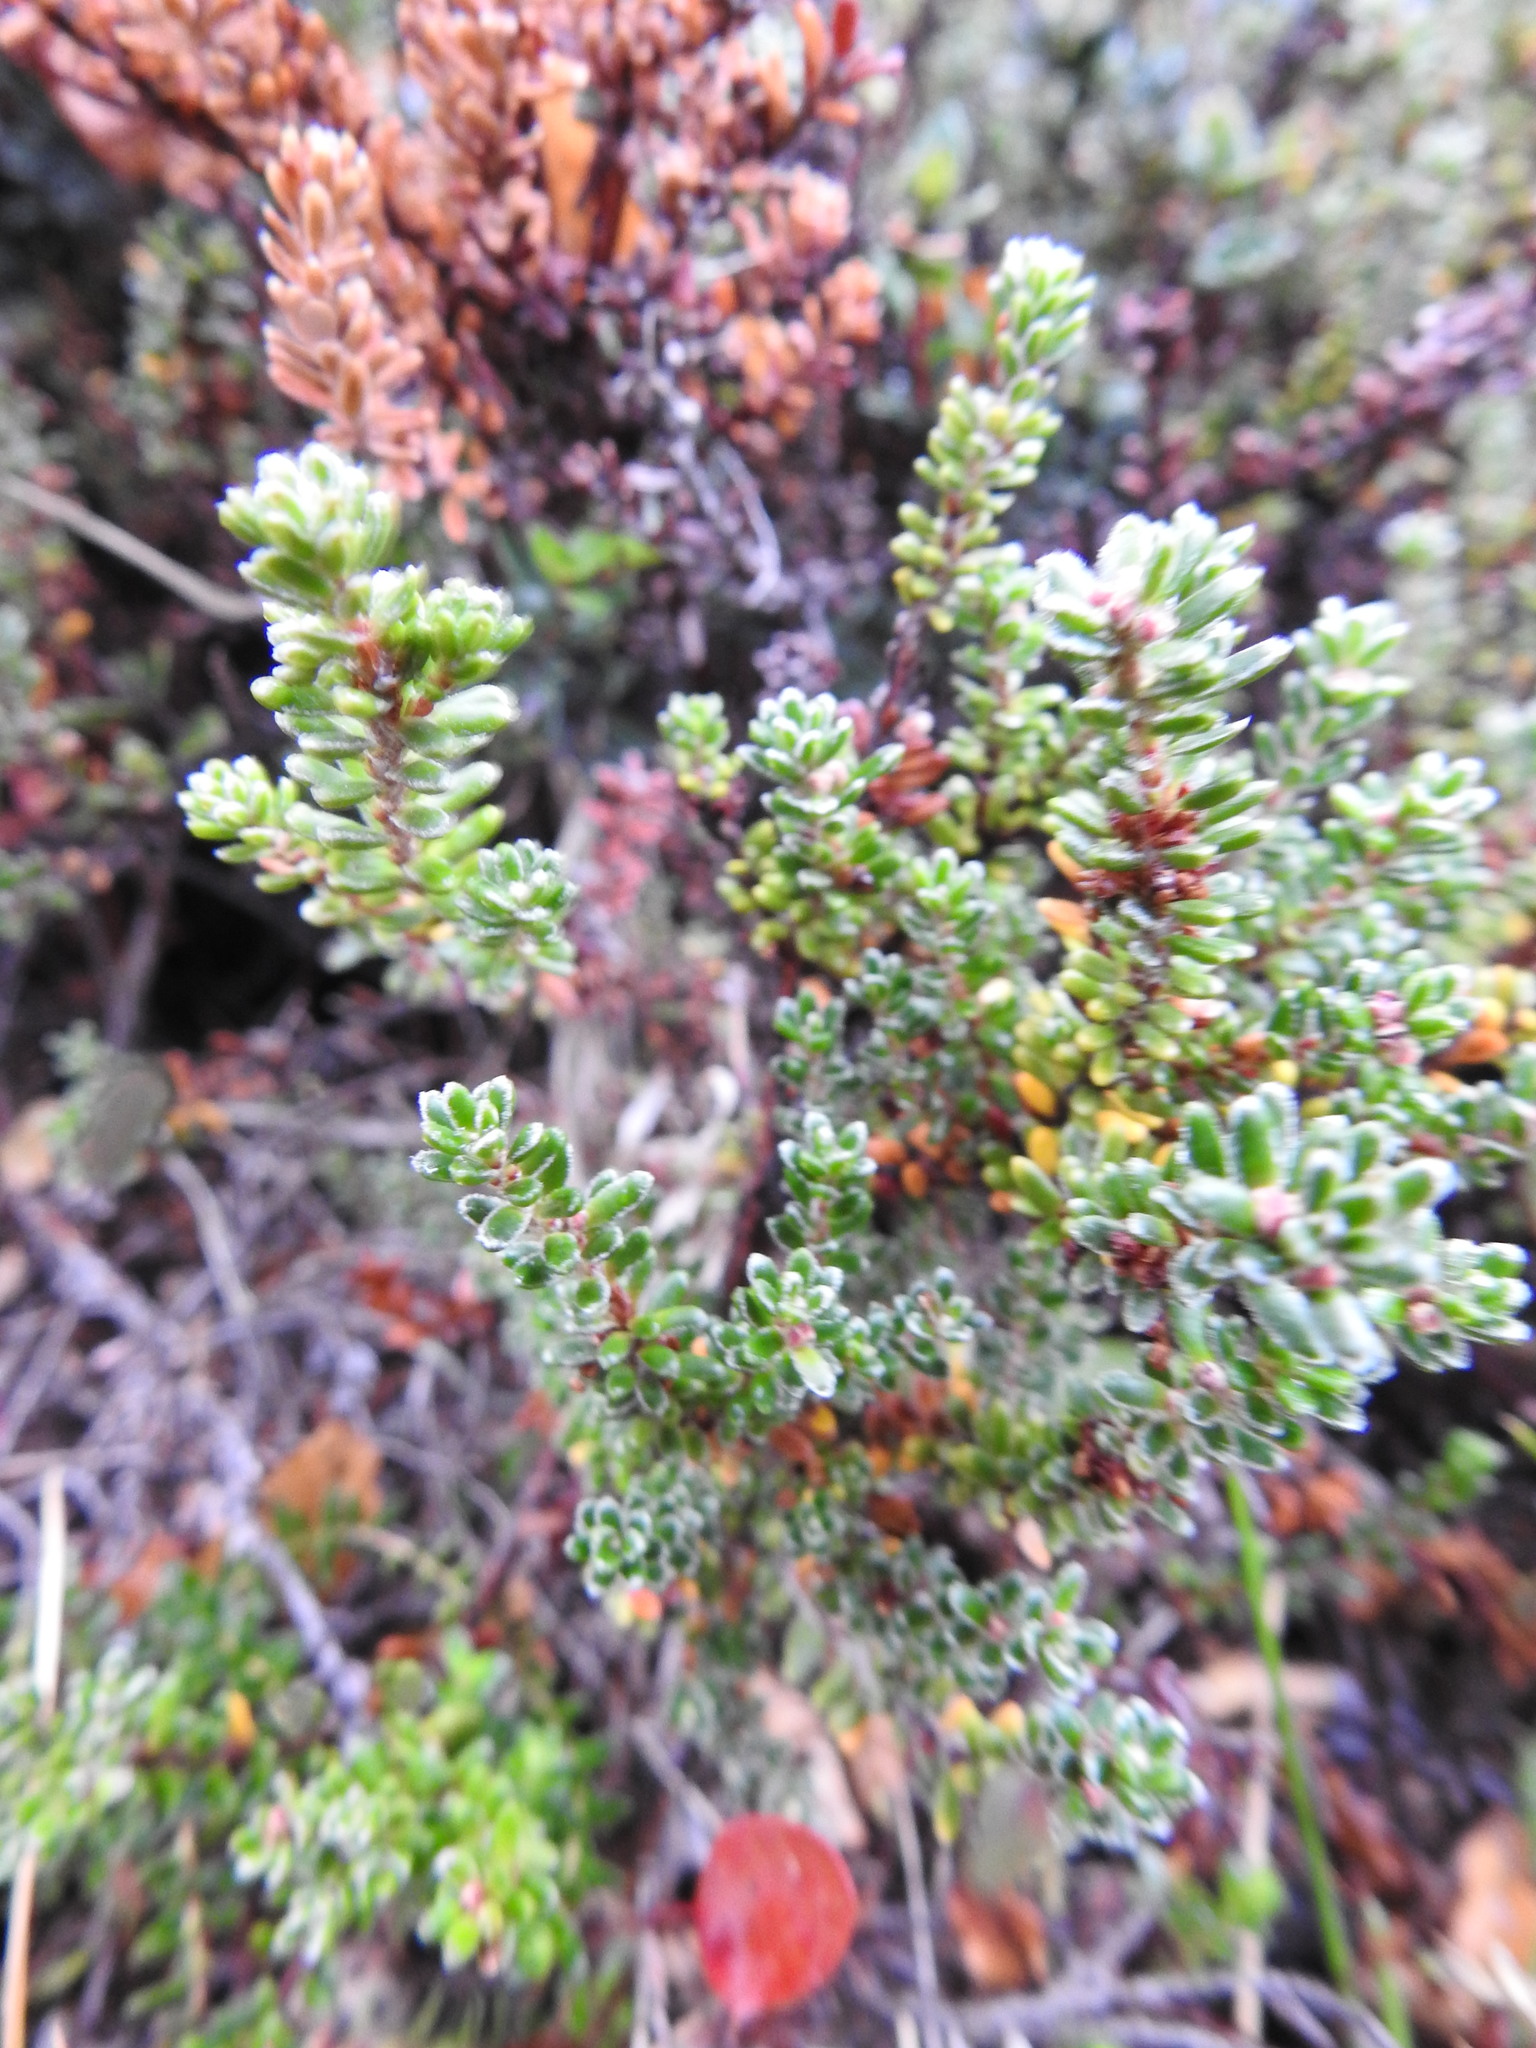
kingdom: Plantae
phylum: Tracheophyta
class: Magnoliopsida
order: Ericales
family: Ericaceae
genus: Empetrum
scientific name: Empetrum rubrum
